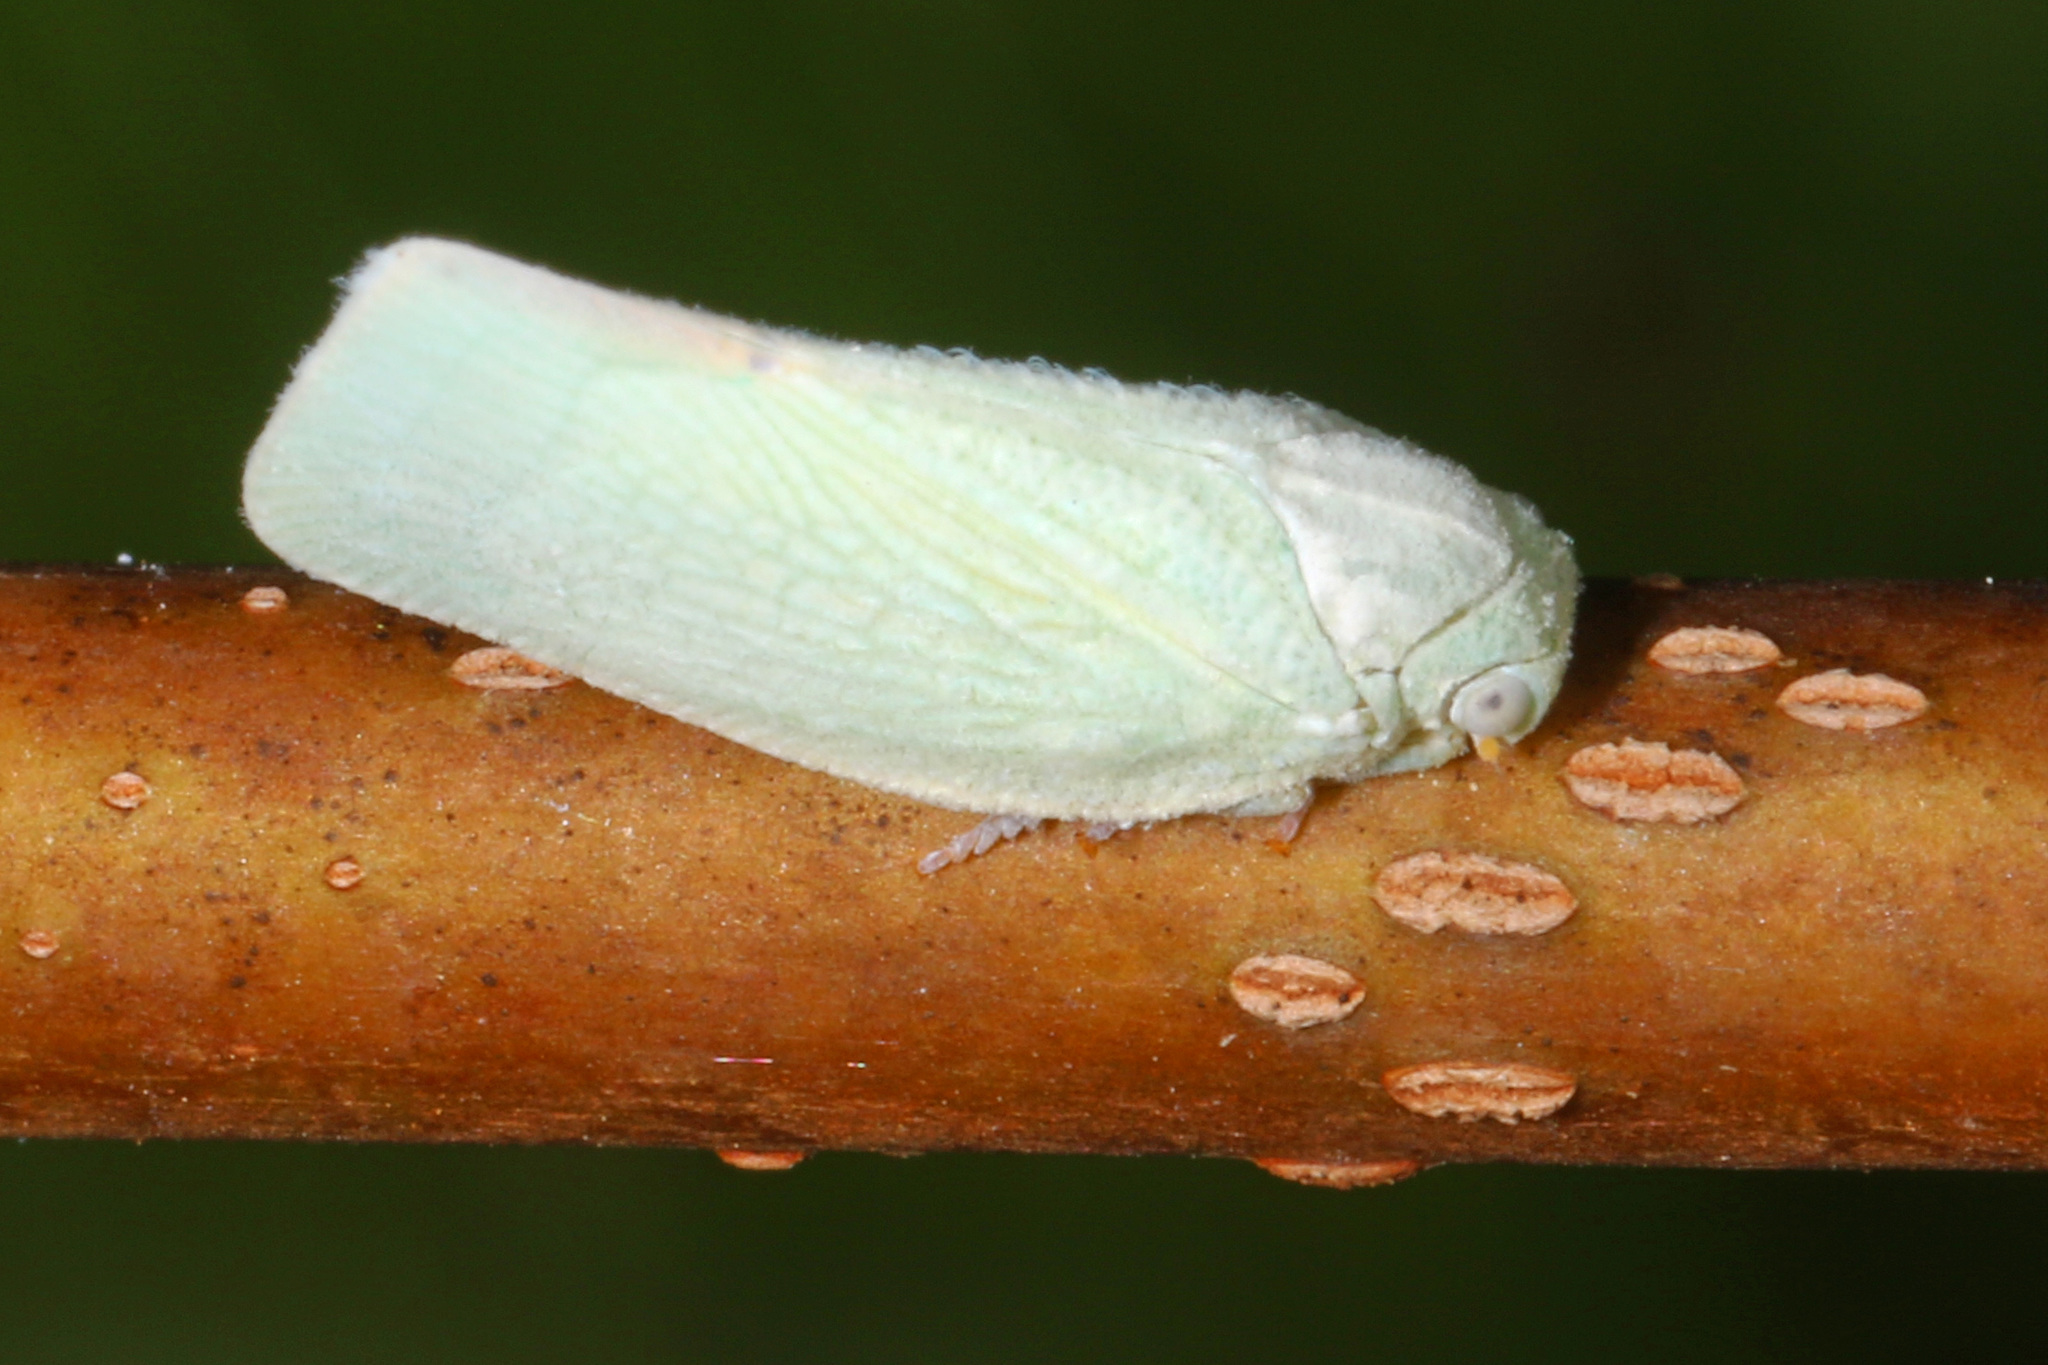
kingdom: Animalia
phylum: Arthropoda
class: Insecta
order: Hemiptera
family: Flatidae
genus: Flatormenis
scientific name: Flatormenis proxima
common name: Northern flatid planthopper
